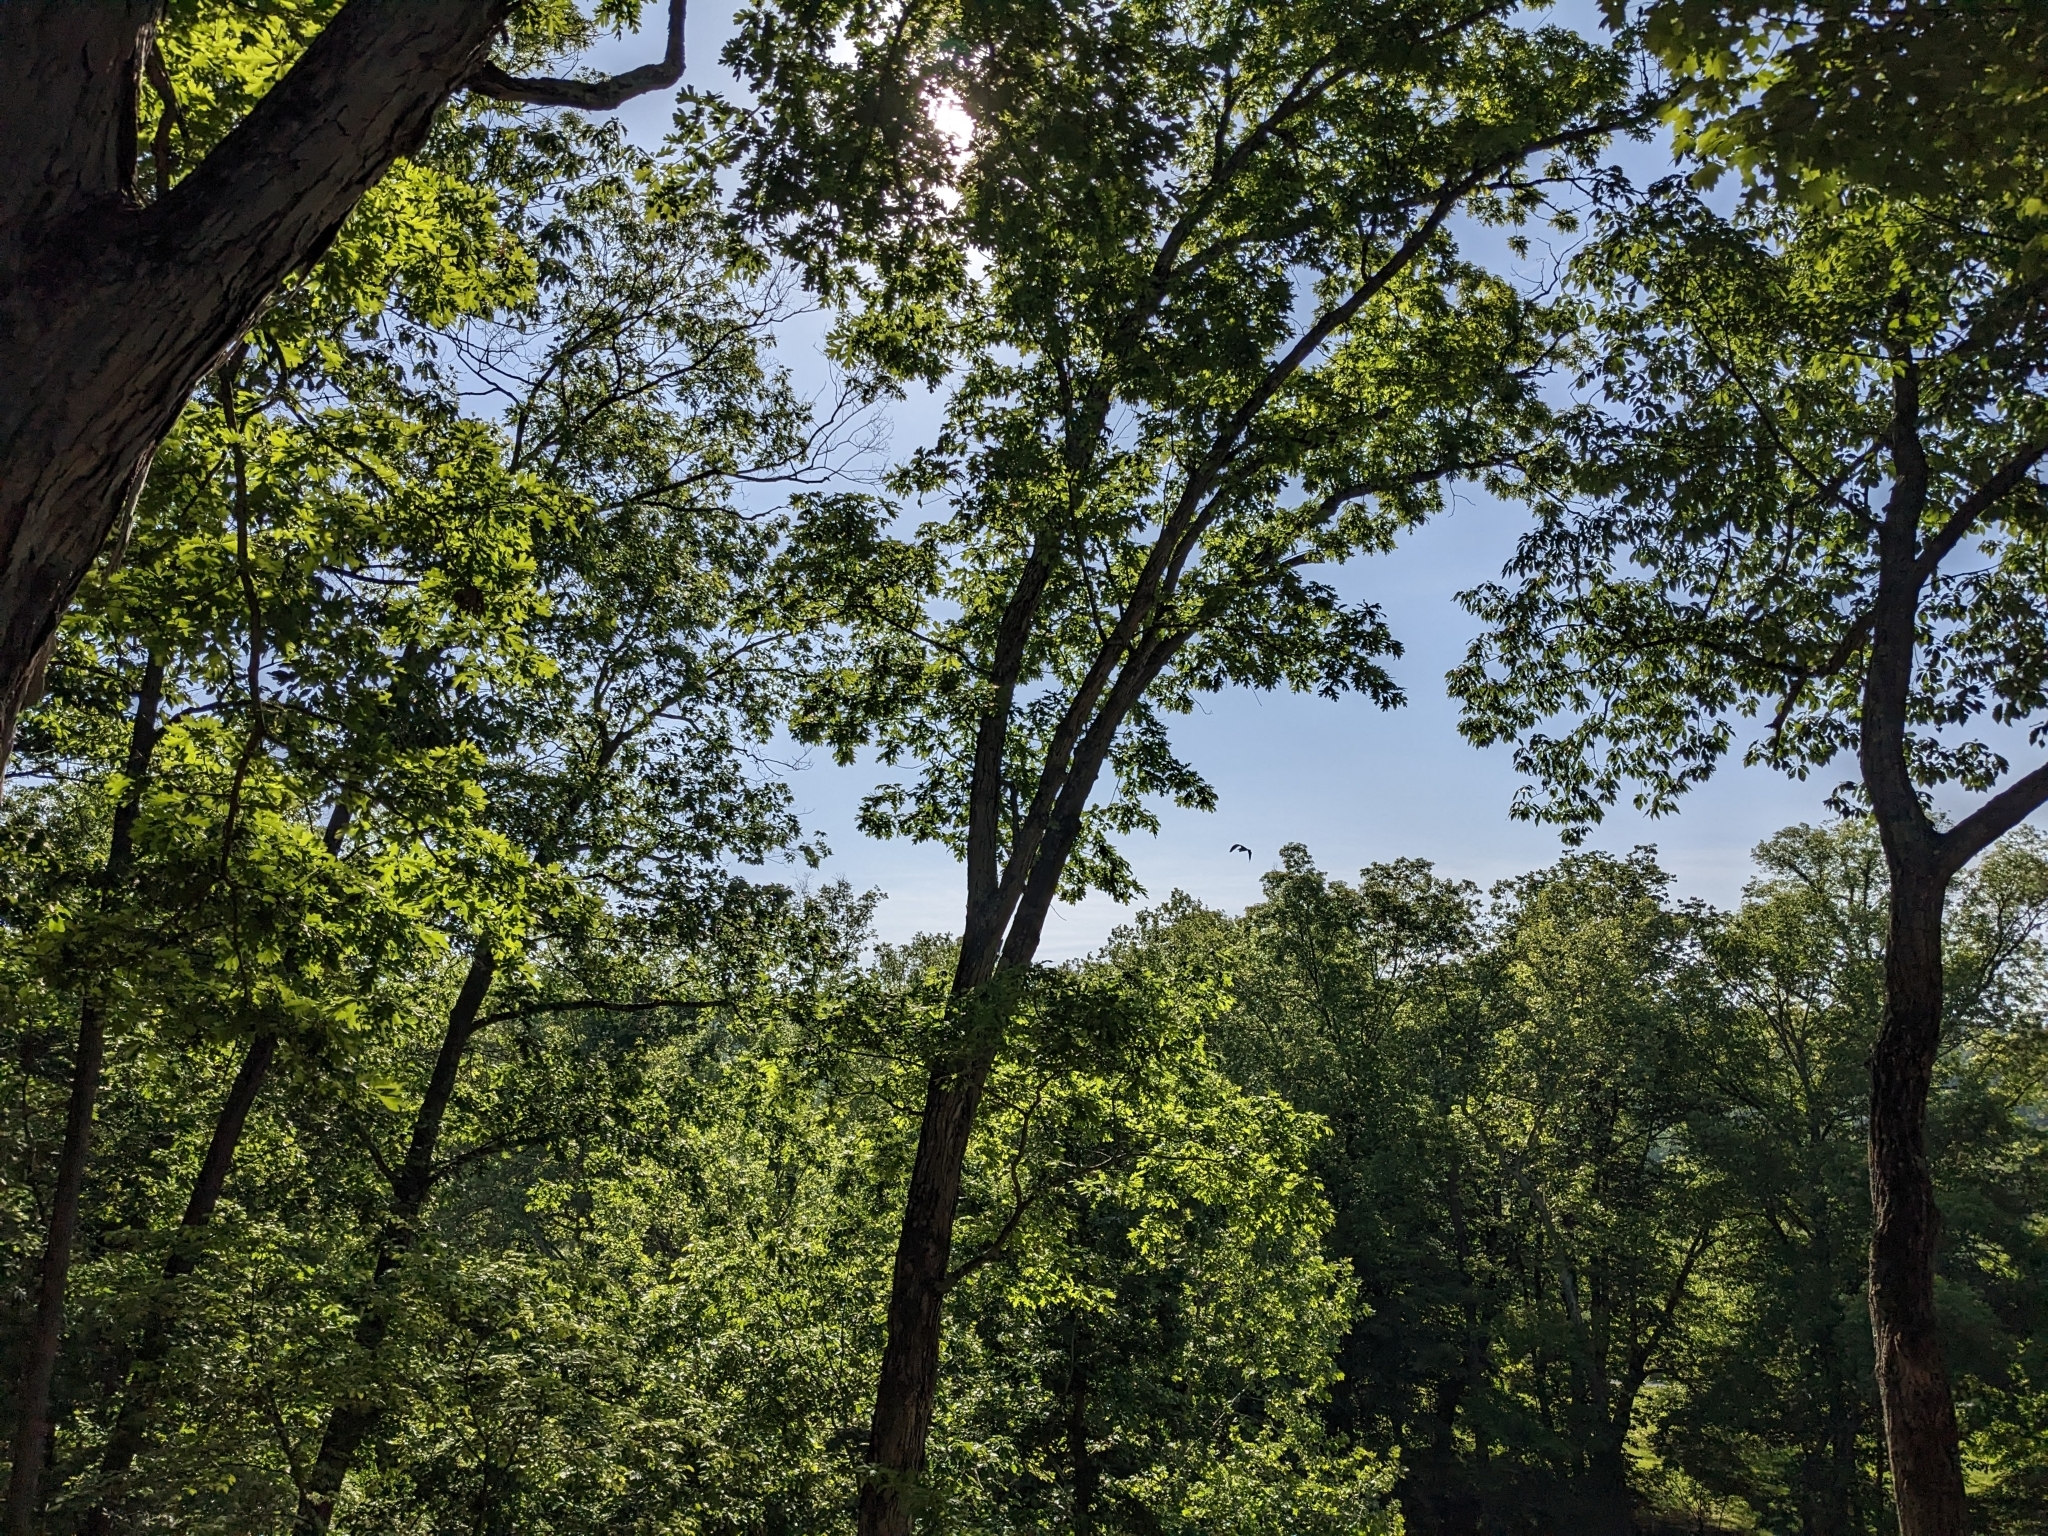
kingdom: Animalia
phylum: Chordata
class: Aves
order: Pelecaniformes
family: Ardeidae
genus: Ardea
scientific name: Ardea herodias
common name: Great blue heron
